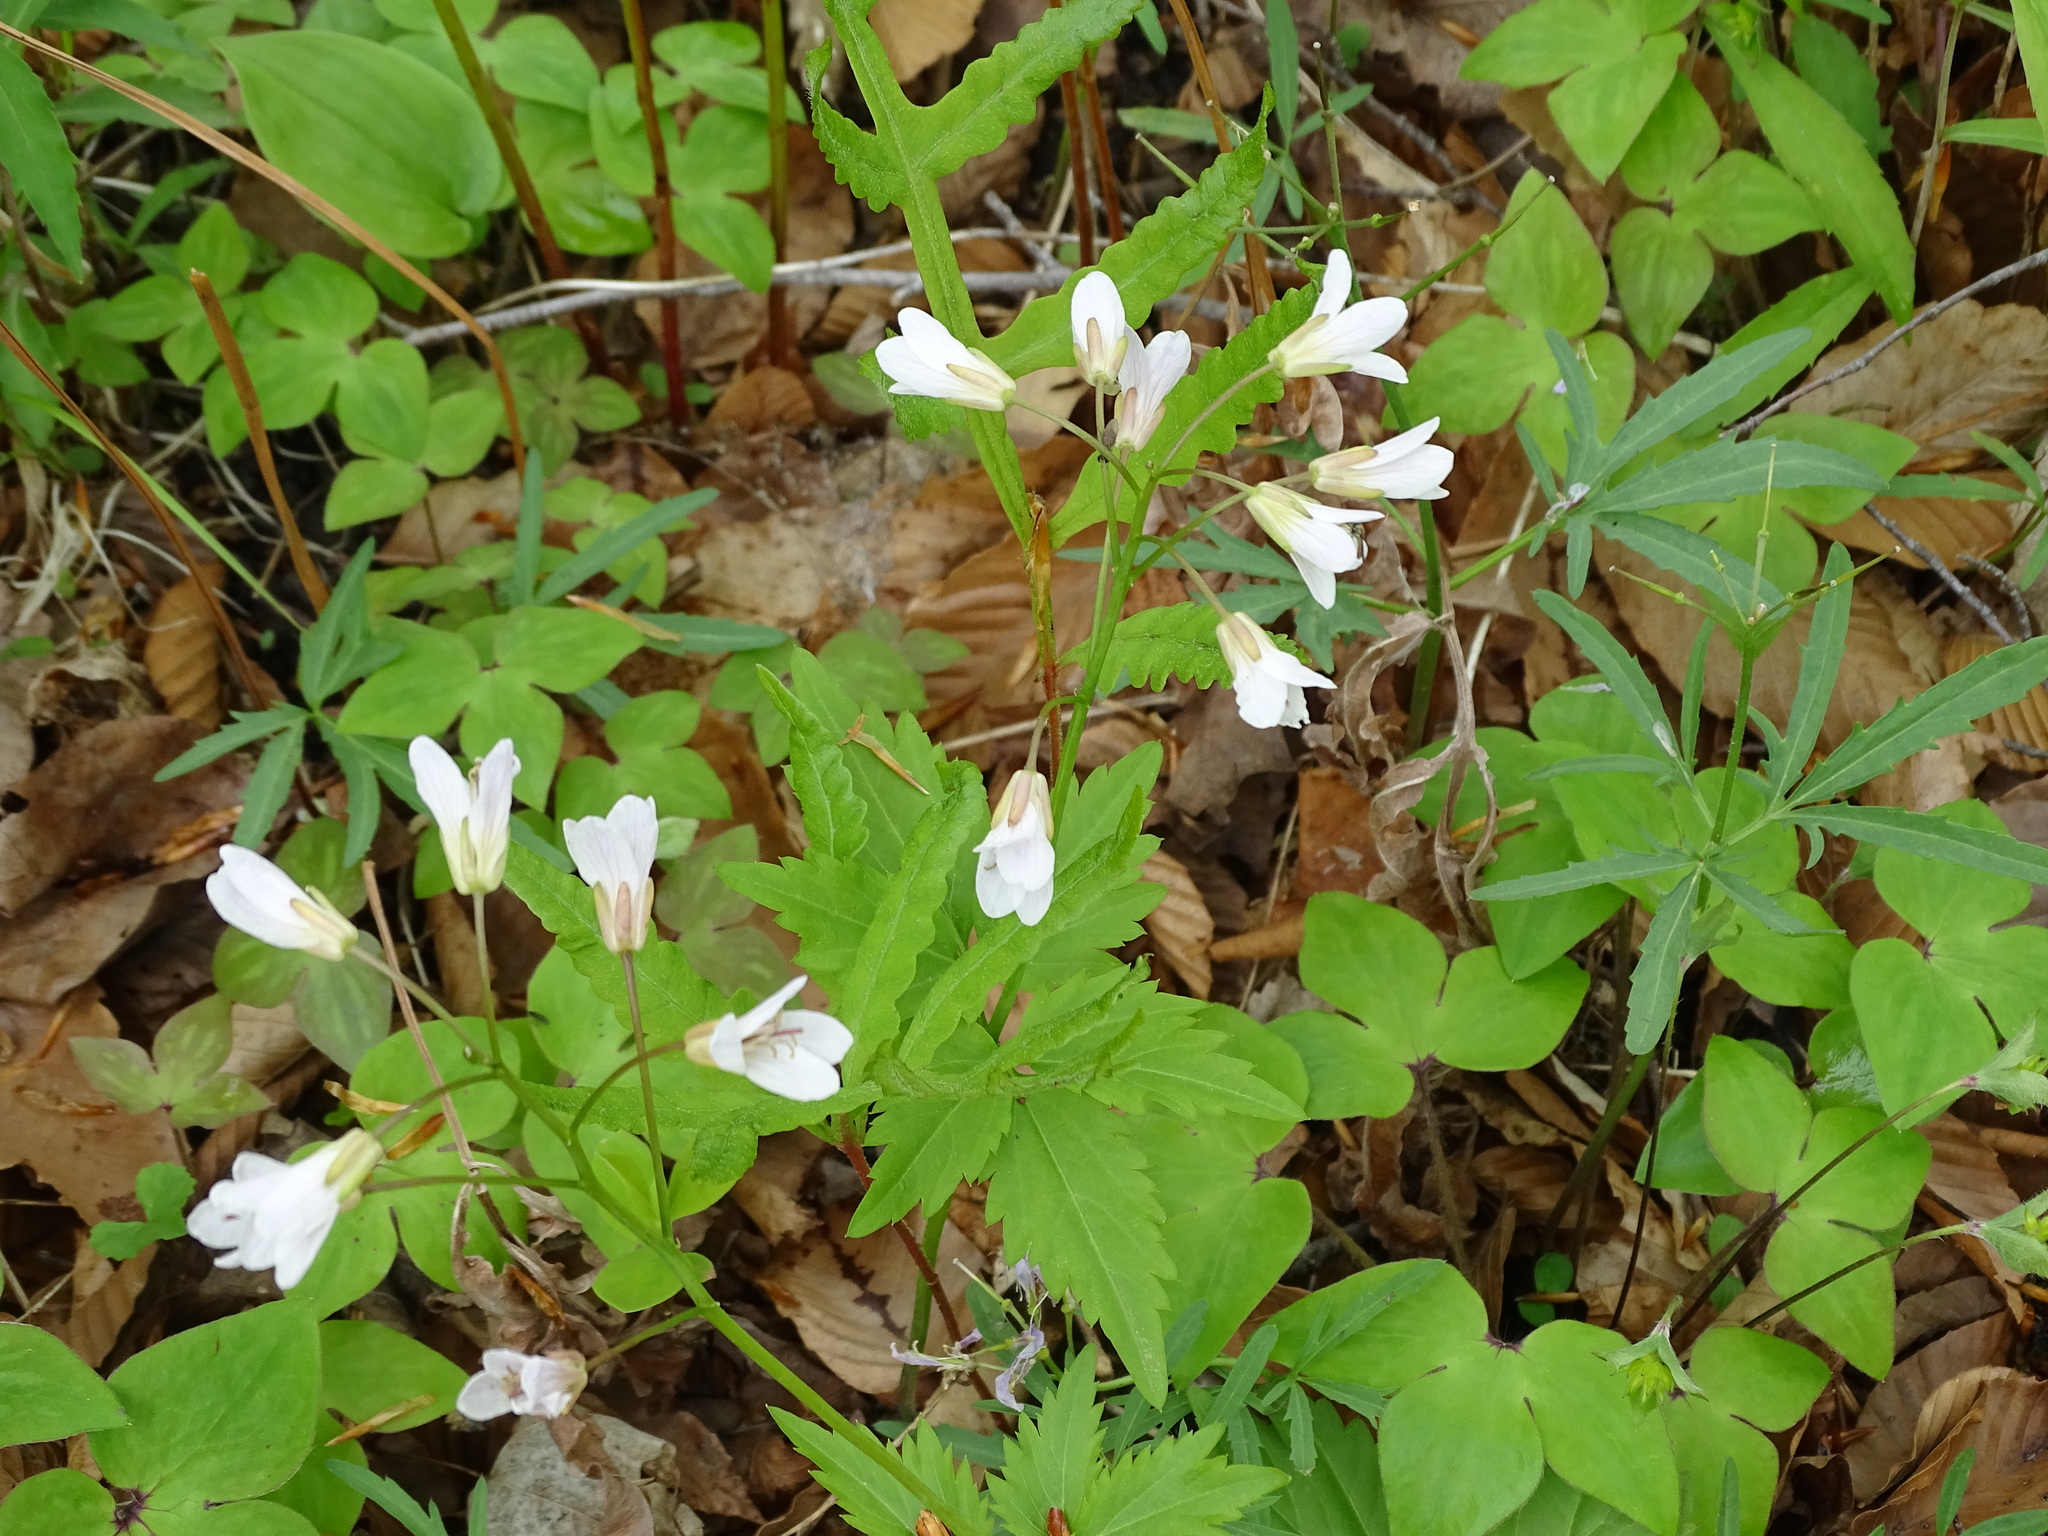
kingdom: Plantae
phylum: Tracheophyta
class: Magnoliopsida
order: Brassicales
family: Brassicaceae
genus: Cardamine
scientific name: Cardamine diphylla
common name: Broad-leaved toothwort
